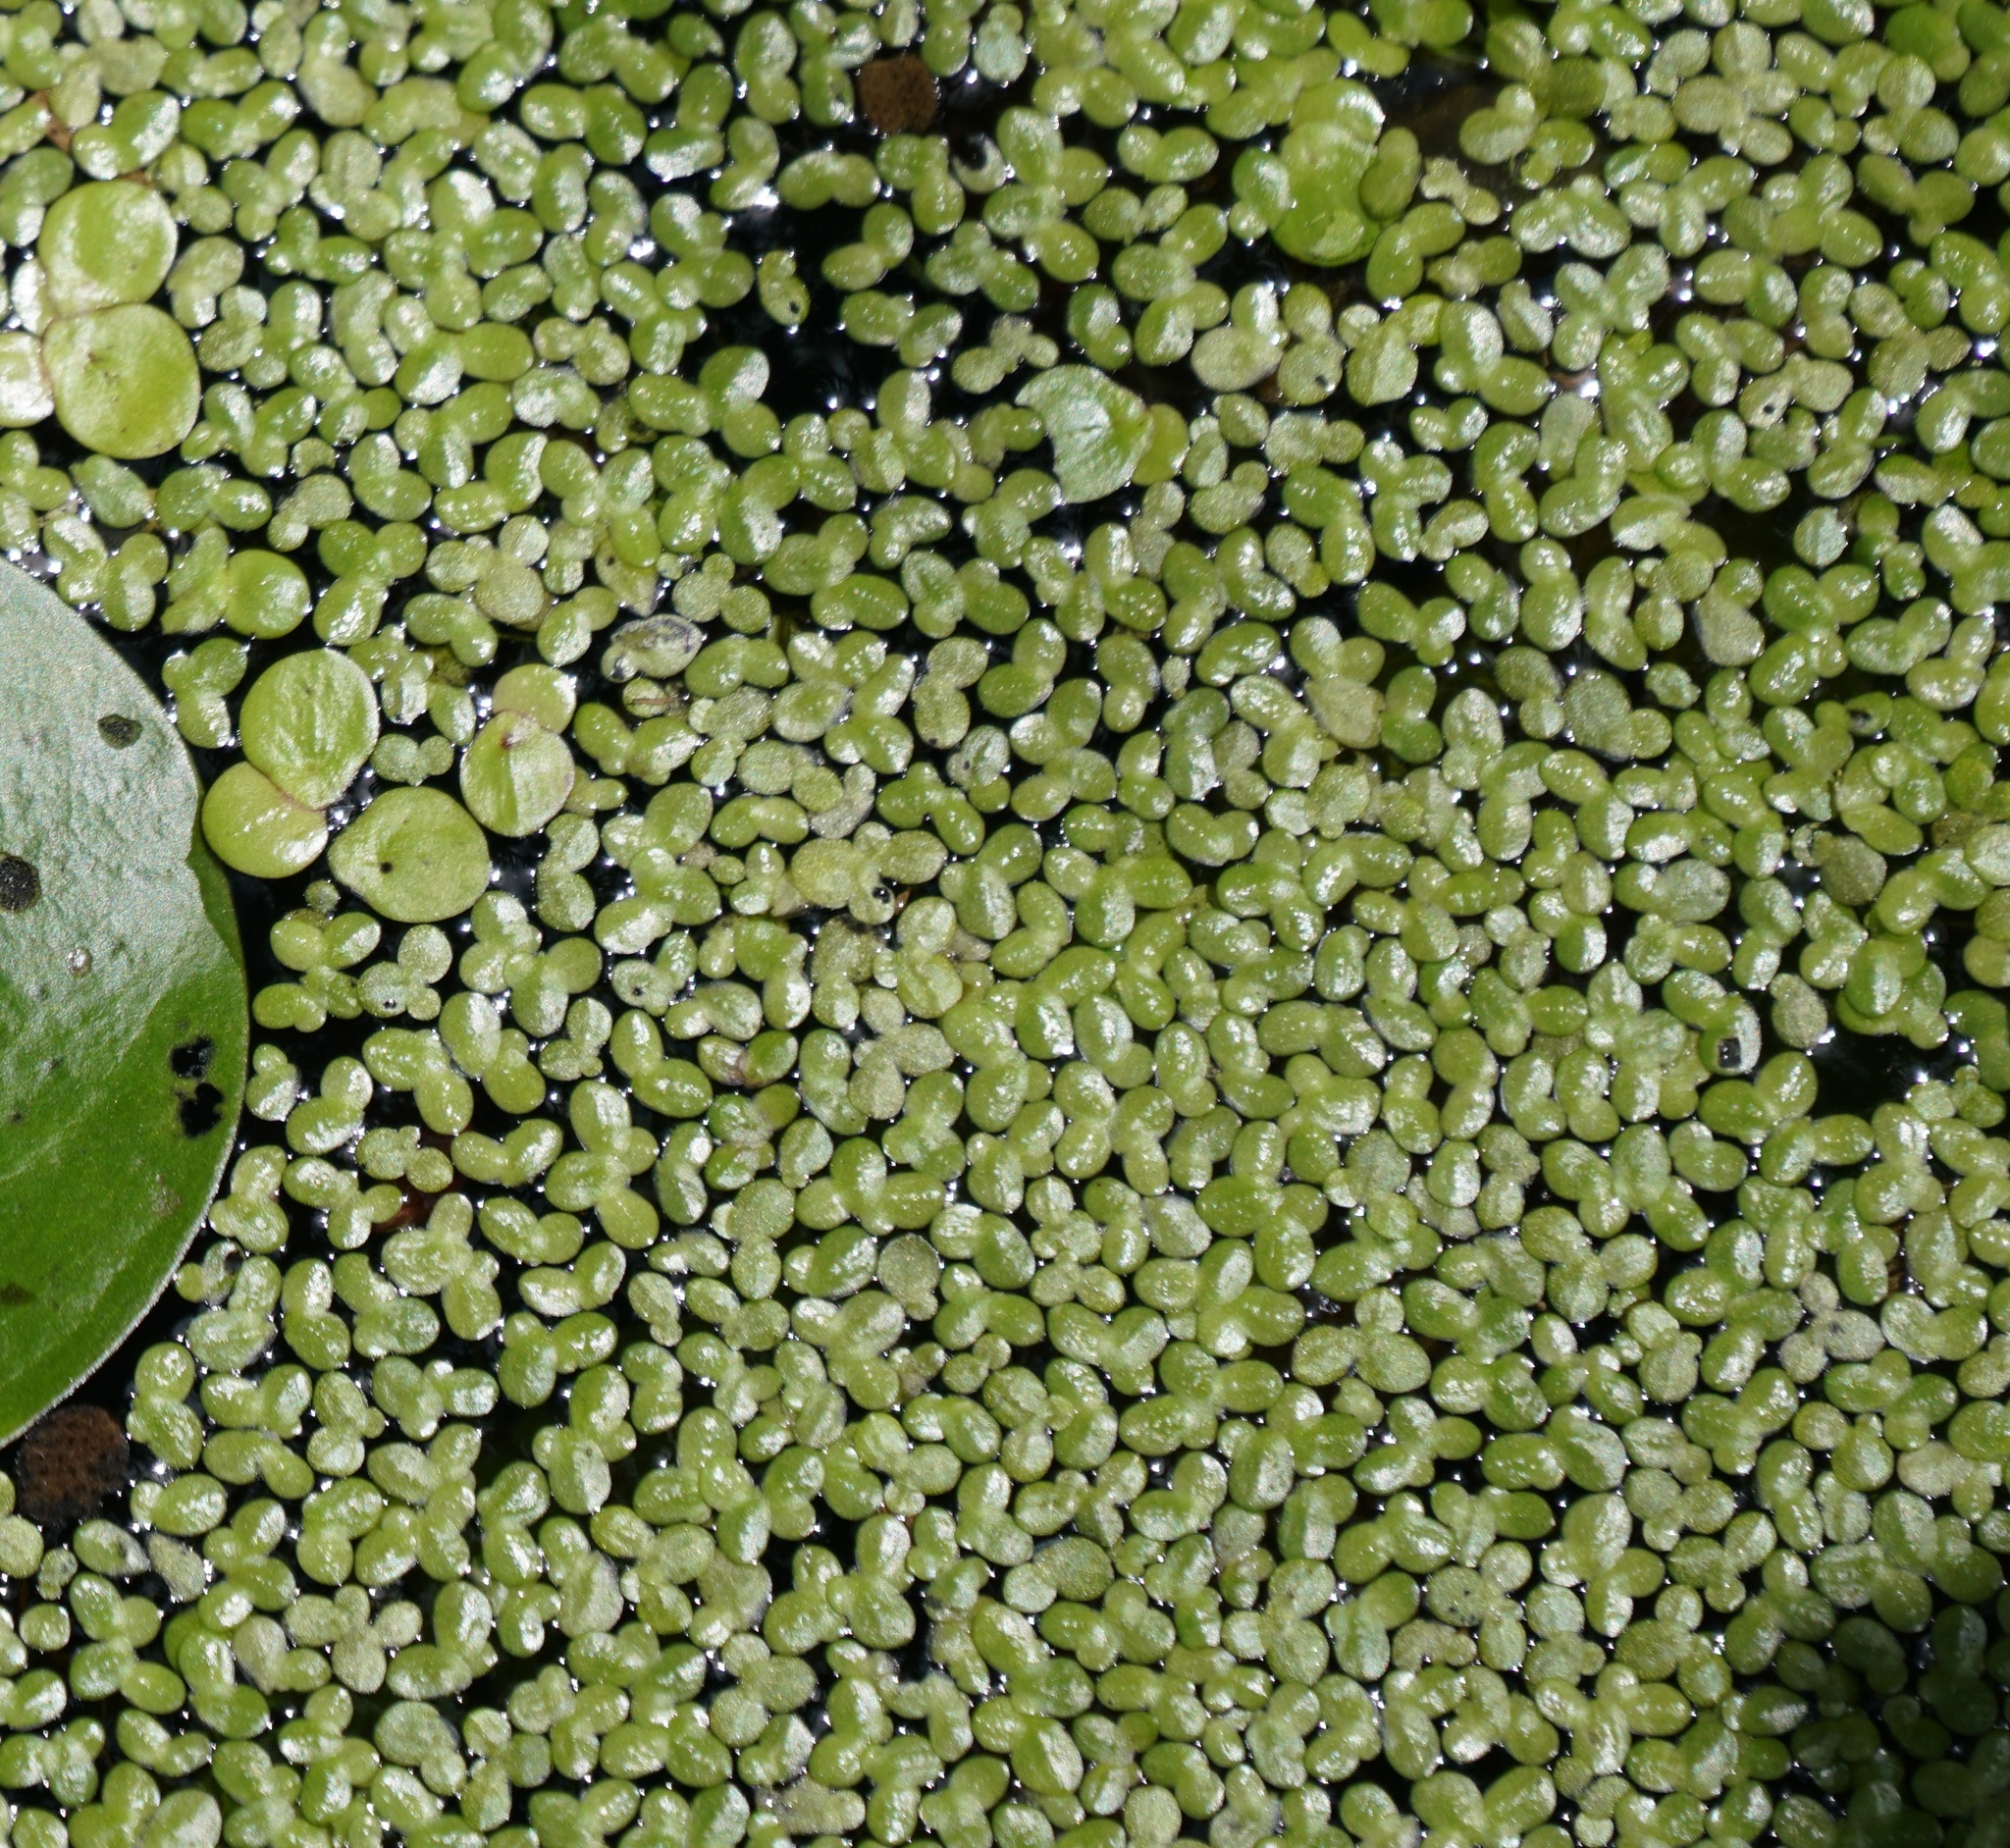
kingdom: Plantae
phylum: Tracheophyta
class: Liliopsida
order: Alismatales
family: Araceae
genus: Lemna
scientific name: Lemna minor
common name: Common duckweed
